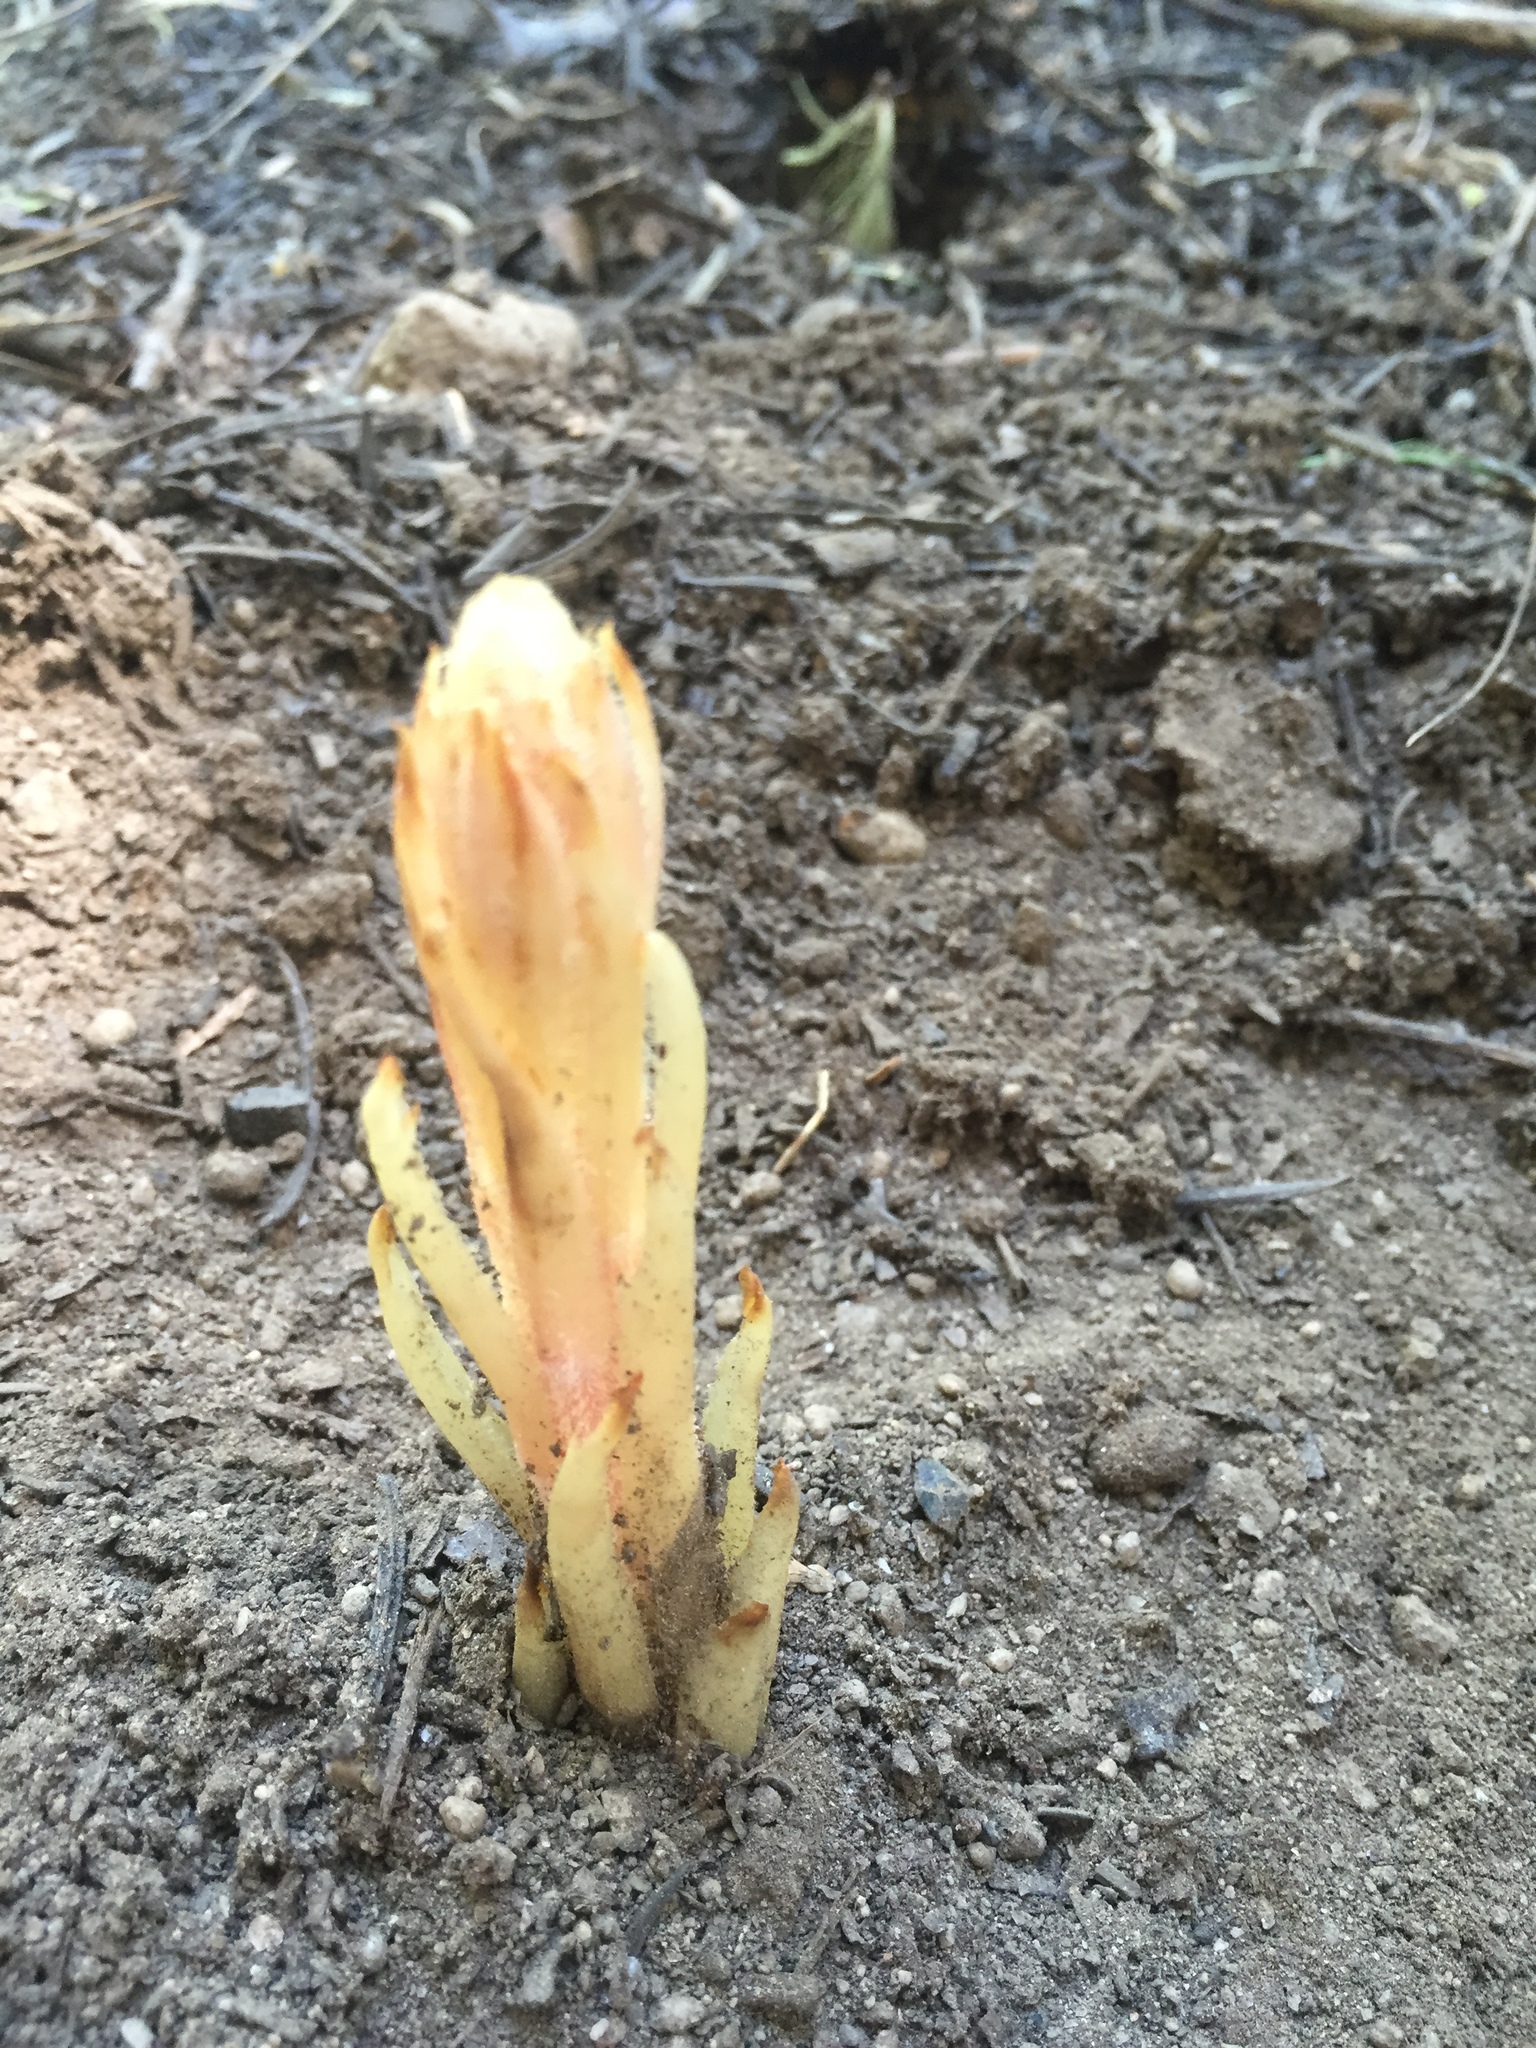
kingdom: Plantae
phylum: Tracheophyta
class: Magnoliopsida
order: Ericales
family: Ericaceae
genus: Pterospora
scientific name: Pterospora andromedea
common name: Giant bird's-nest
